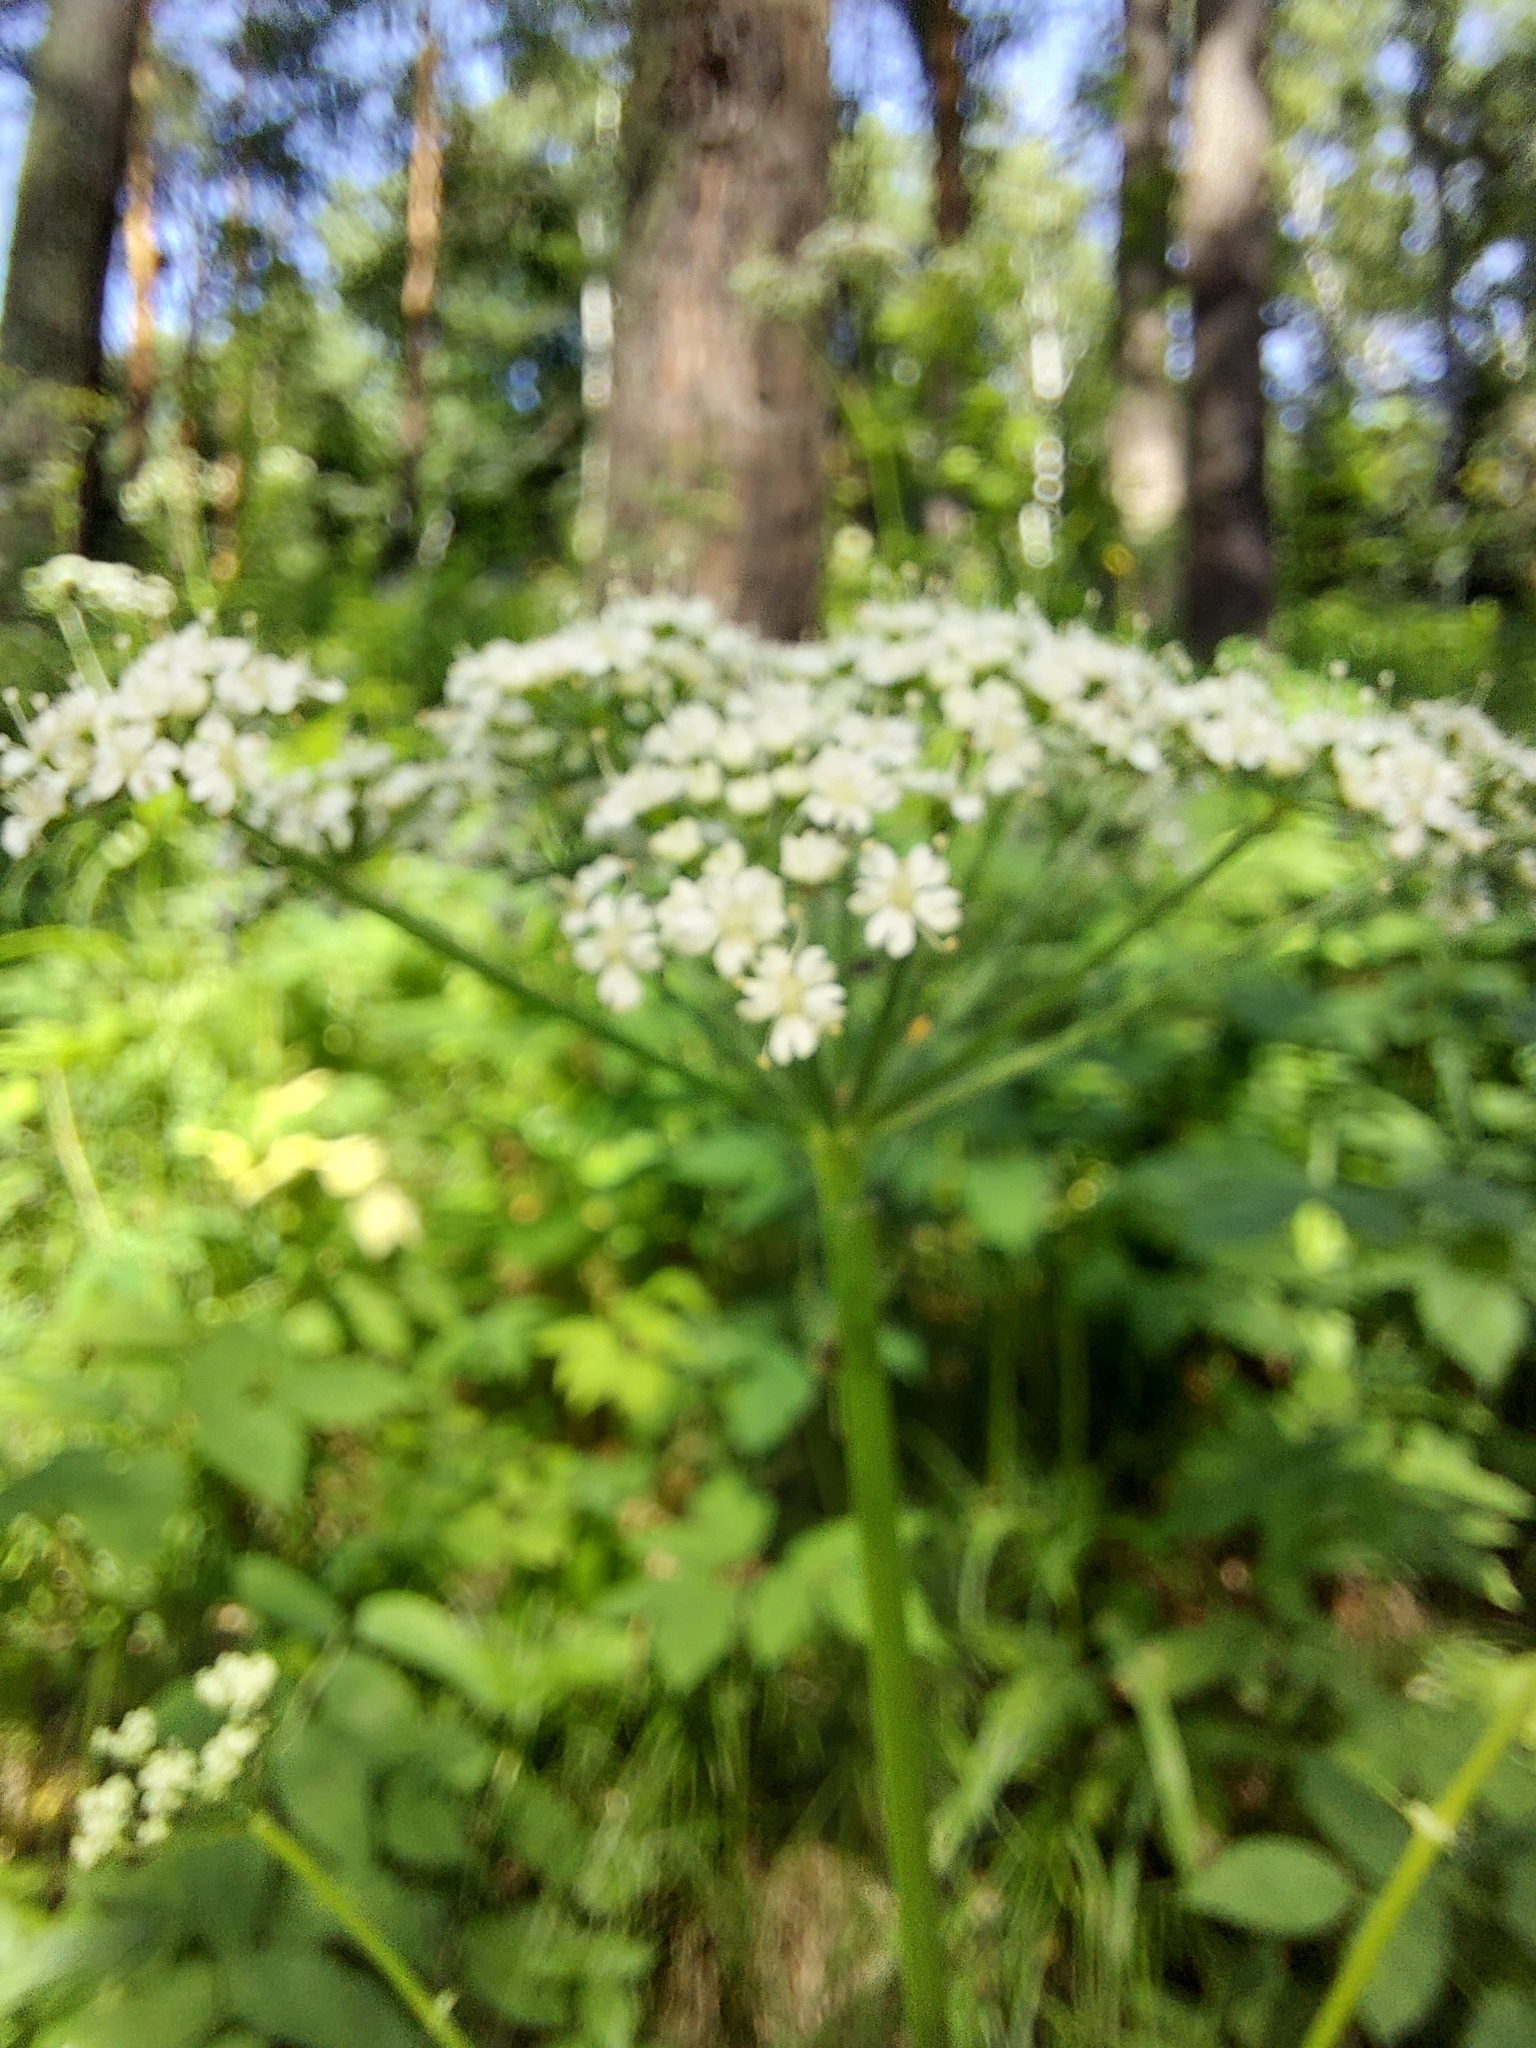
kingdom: Plantae
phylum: Tracheophyta
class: Magnoliopsida
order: Apiales
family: Apiaceae
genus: Aegopodium
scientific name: Aegopodium podagraria
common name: Ground-elder
